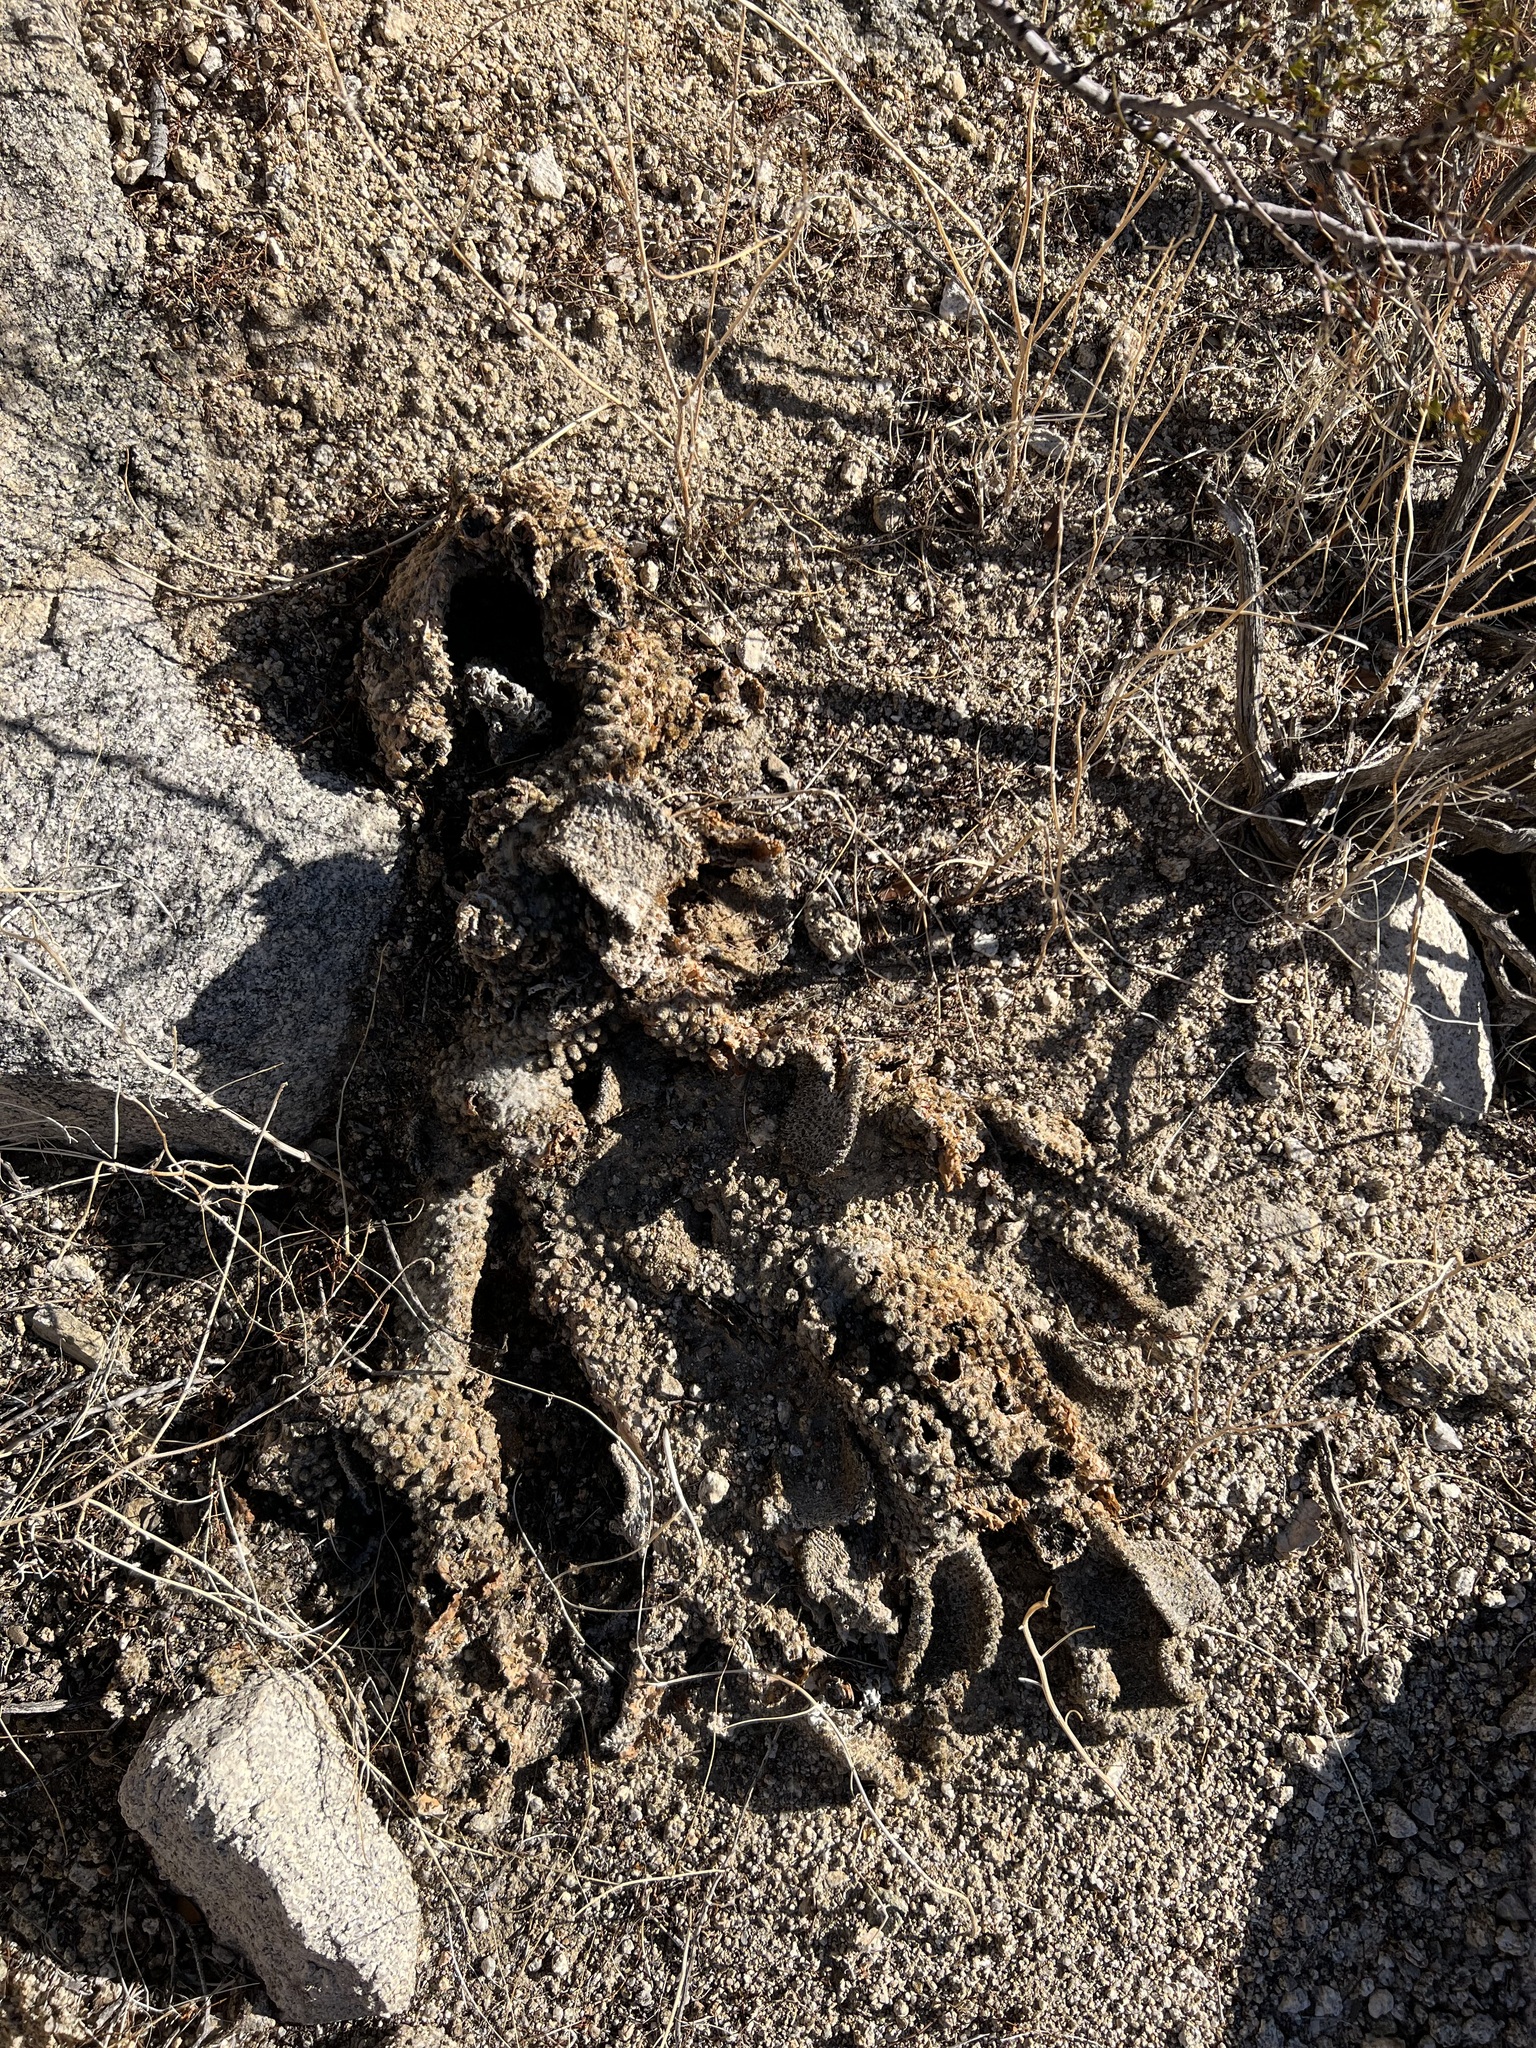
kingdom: Plantae
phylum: Tracheophyta
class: Magnoliopsida
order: Caryophyllales
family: Cactaceae
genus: Opuntia
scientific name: Opuntia basilaris
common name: Beavertail prickly-pear
